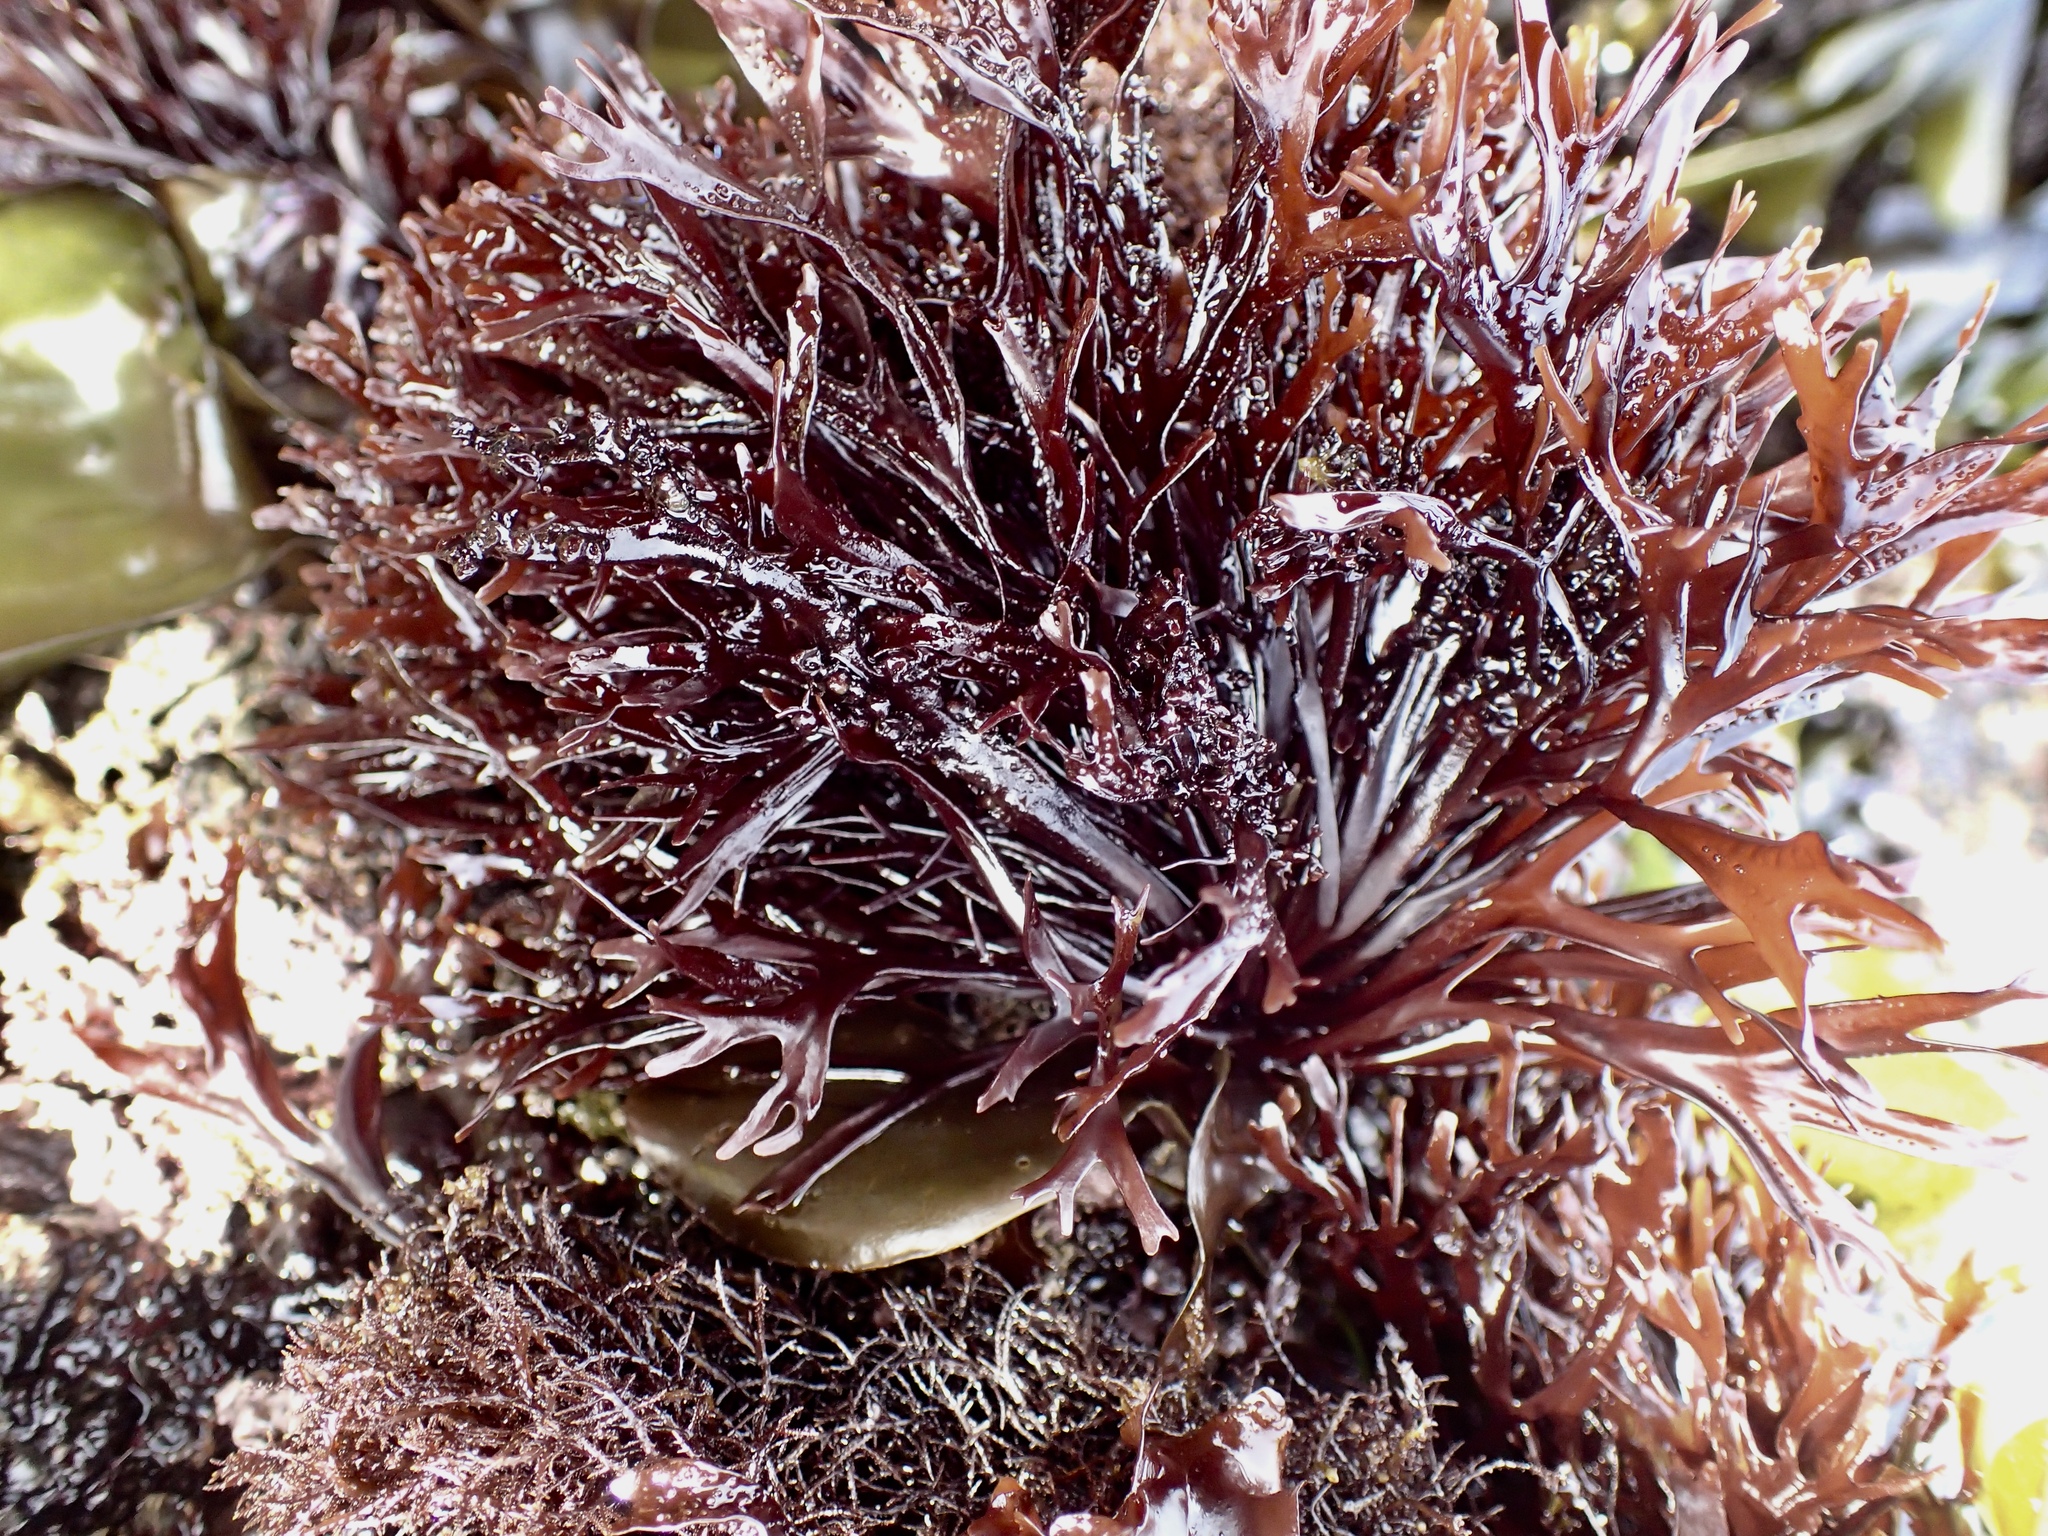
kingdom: Plantae
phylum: Rhodophyta
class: Florideophyceae
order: Gigartinales
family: Phyllophoraceae
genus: Mastocarpus
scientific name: Mastocarpus jardinii
